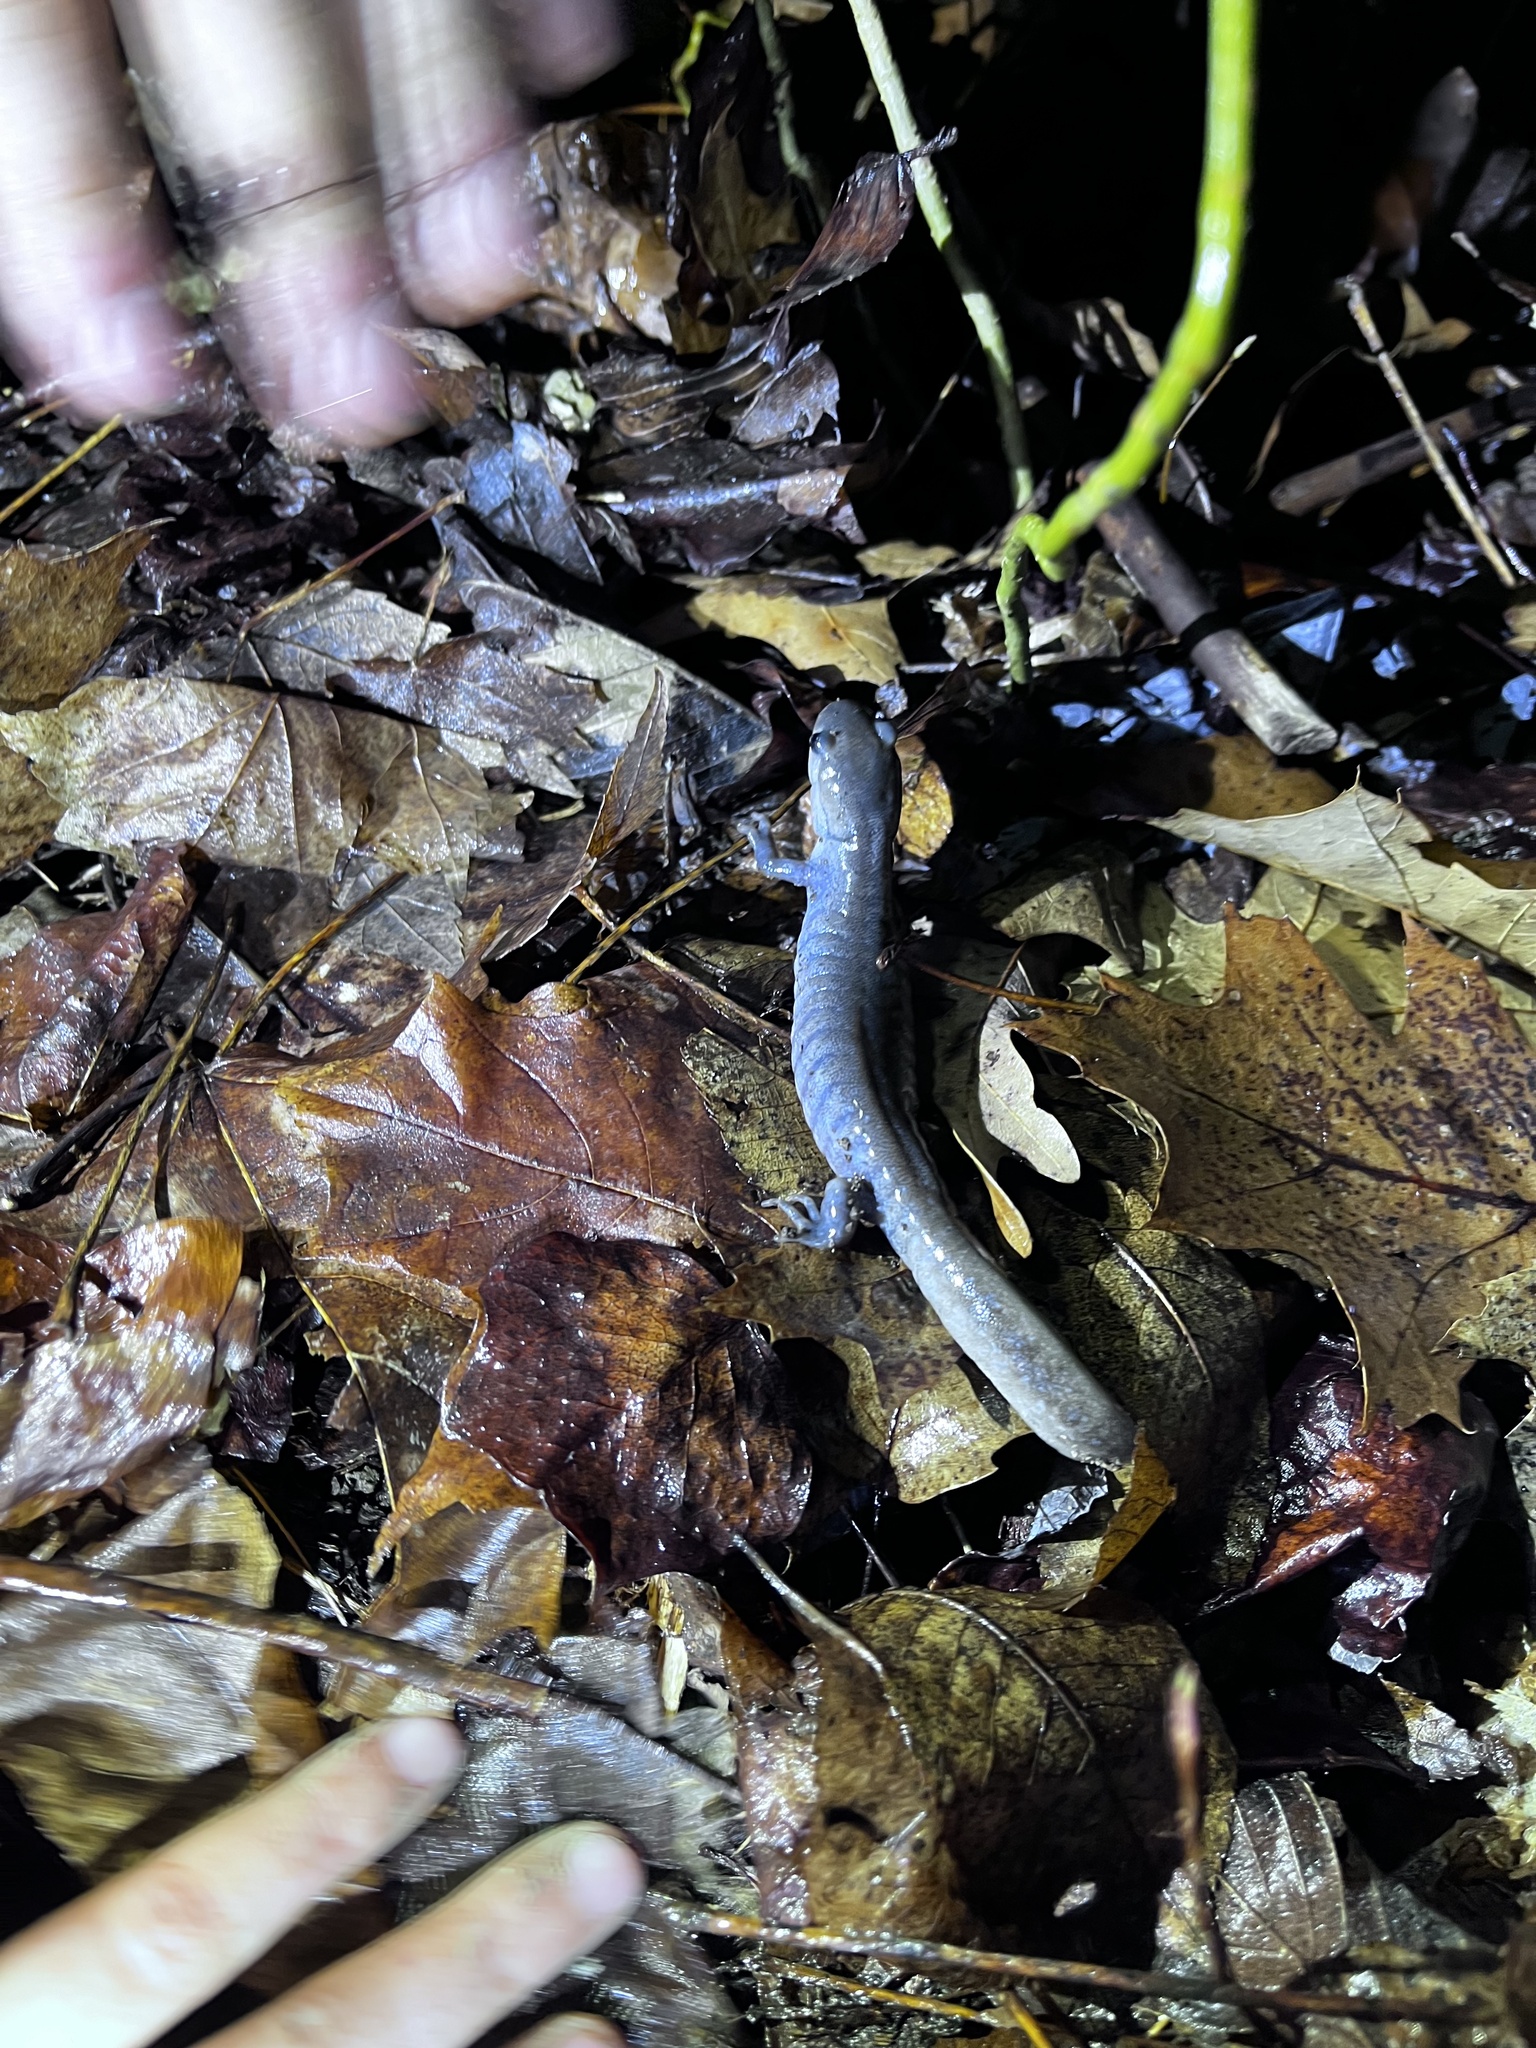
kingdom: Animalia
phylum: Chordata
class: Amphibia
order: Caudata
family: Ambystomatidae
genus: Ambystoma
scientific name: Ambystoma jeffersonianum
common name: Jefferson salamander
